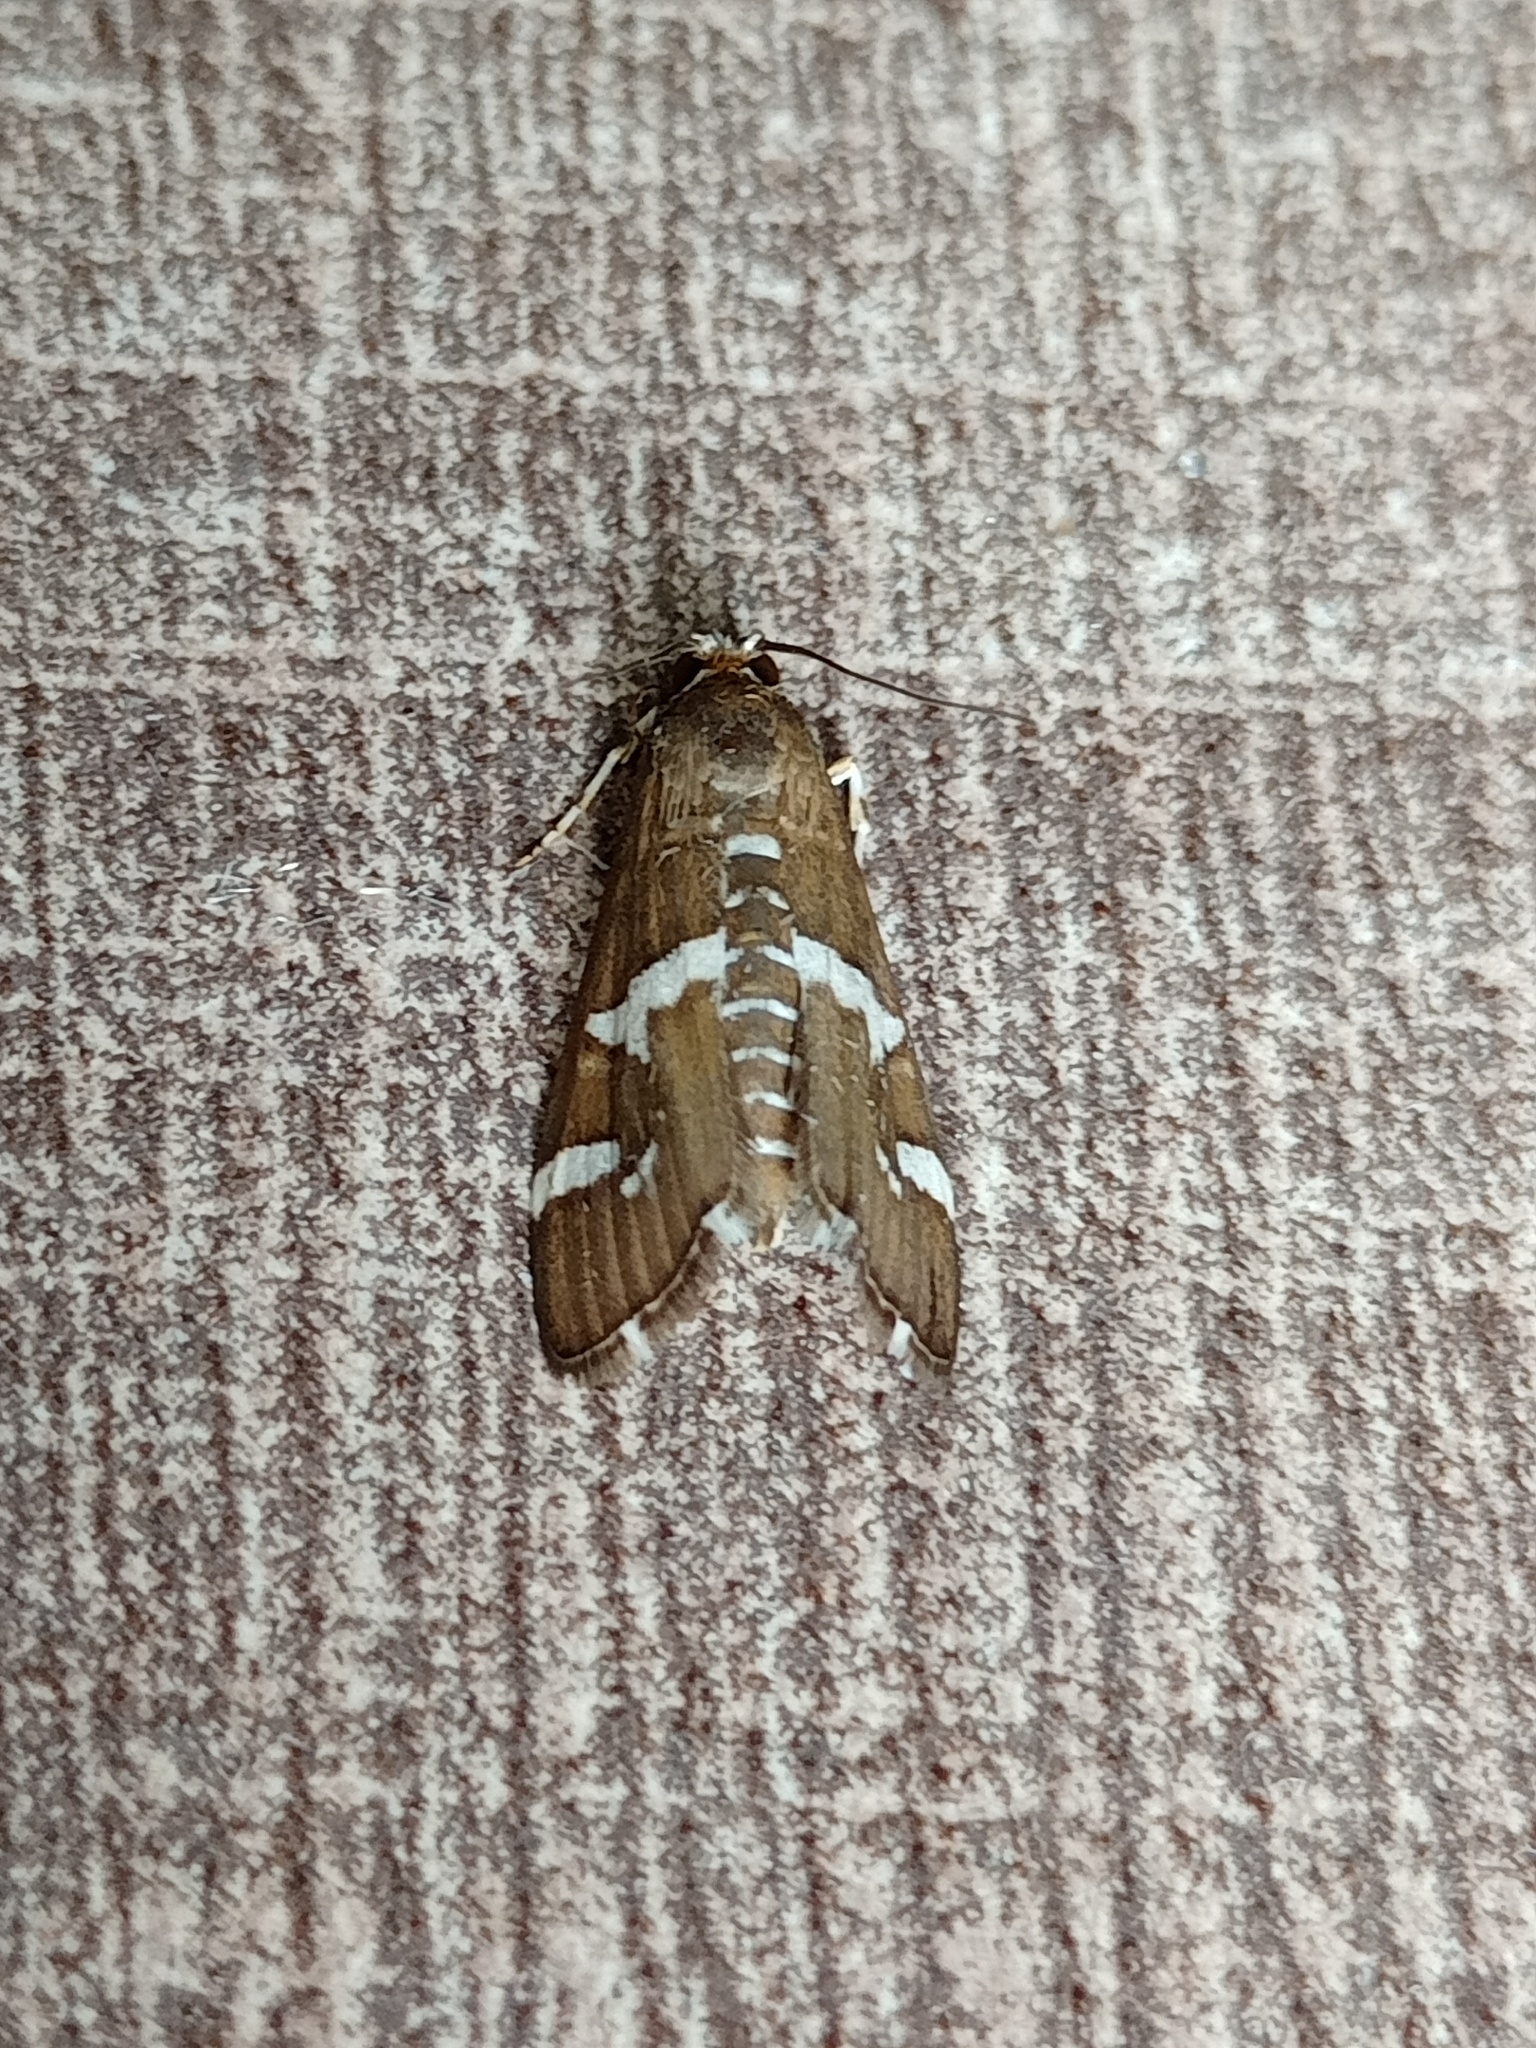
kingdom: Animalia
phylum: Arthropoda
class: Insecta
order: Lepidoptera
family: Crambidae
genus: Spoladea
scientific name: Spoladea recurvalis
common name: Beet webworm moth
